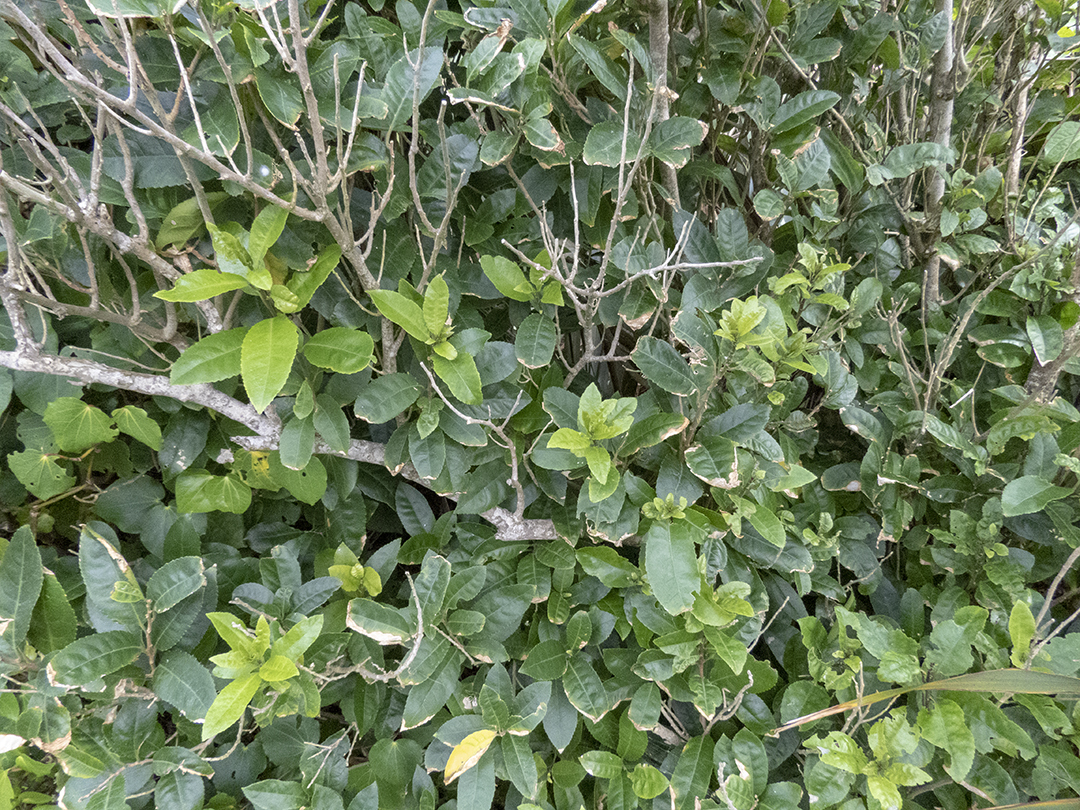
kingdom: Plantae
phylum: Tracheophyta
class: Magnoliopsida
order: Malpighiales
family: Violaceae
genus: Melicytus
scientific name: Melicytus ramiflorus
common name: Mahoe
